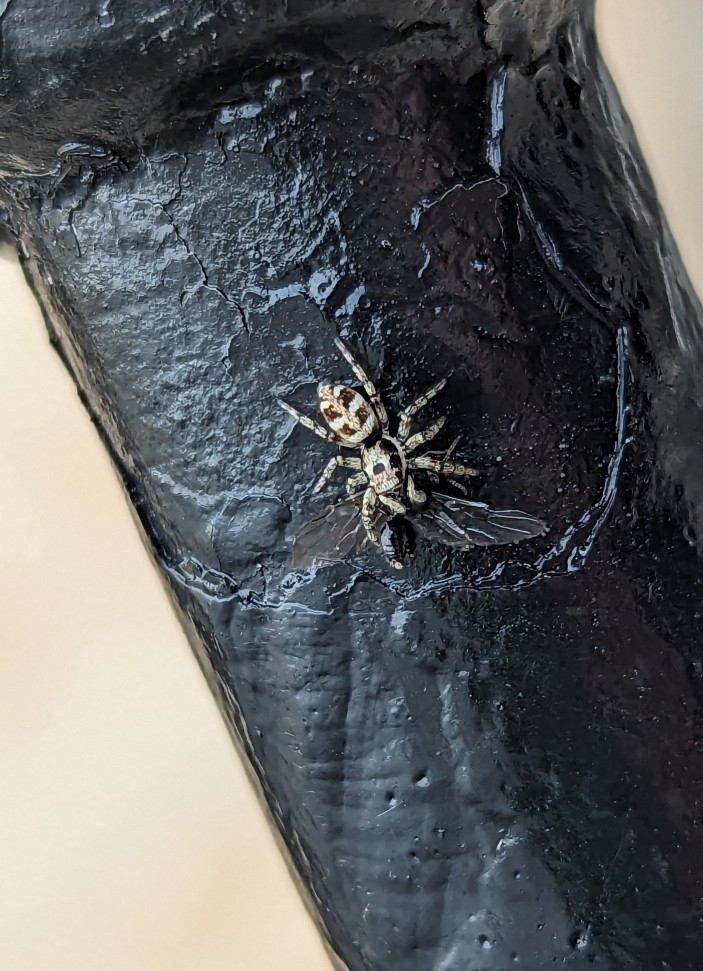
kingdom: Animalia
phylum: Arthropoda
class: Arachnida
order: Araneae
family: Salticidae
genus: Salticus
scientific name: Salticus scenicus
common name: Zebra jumper
